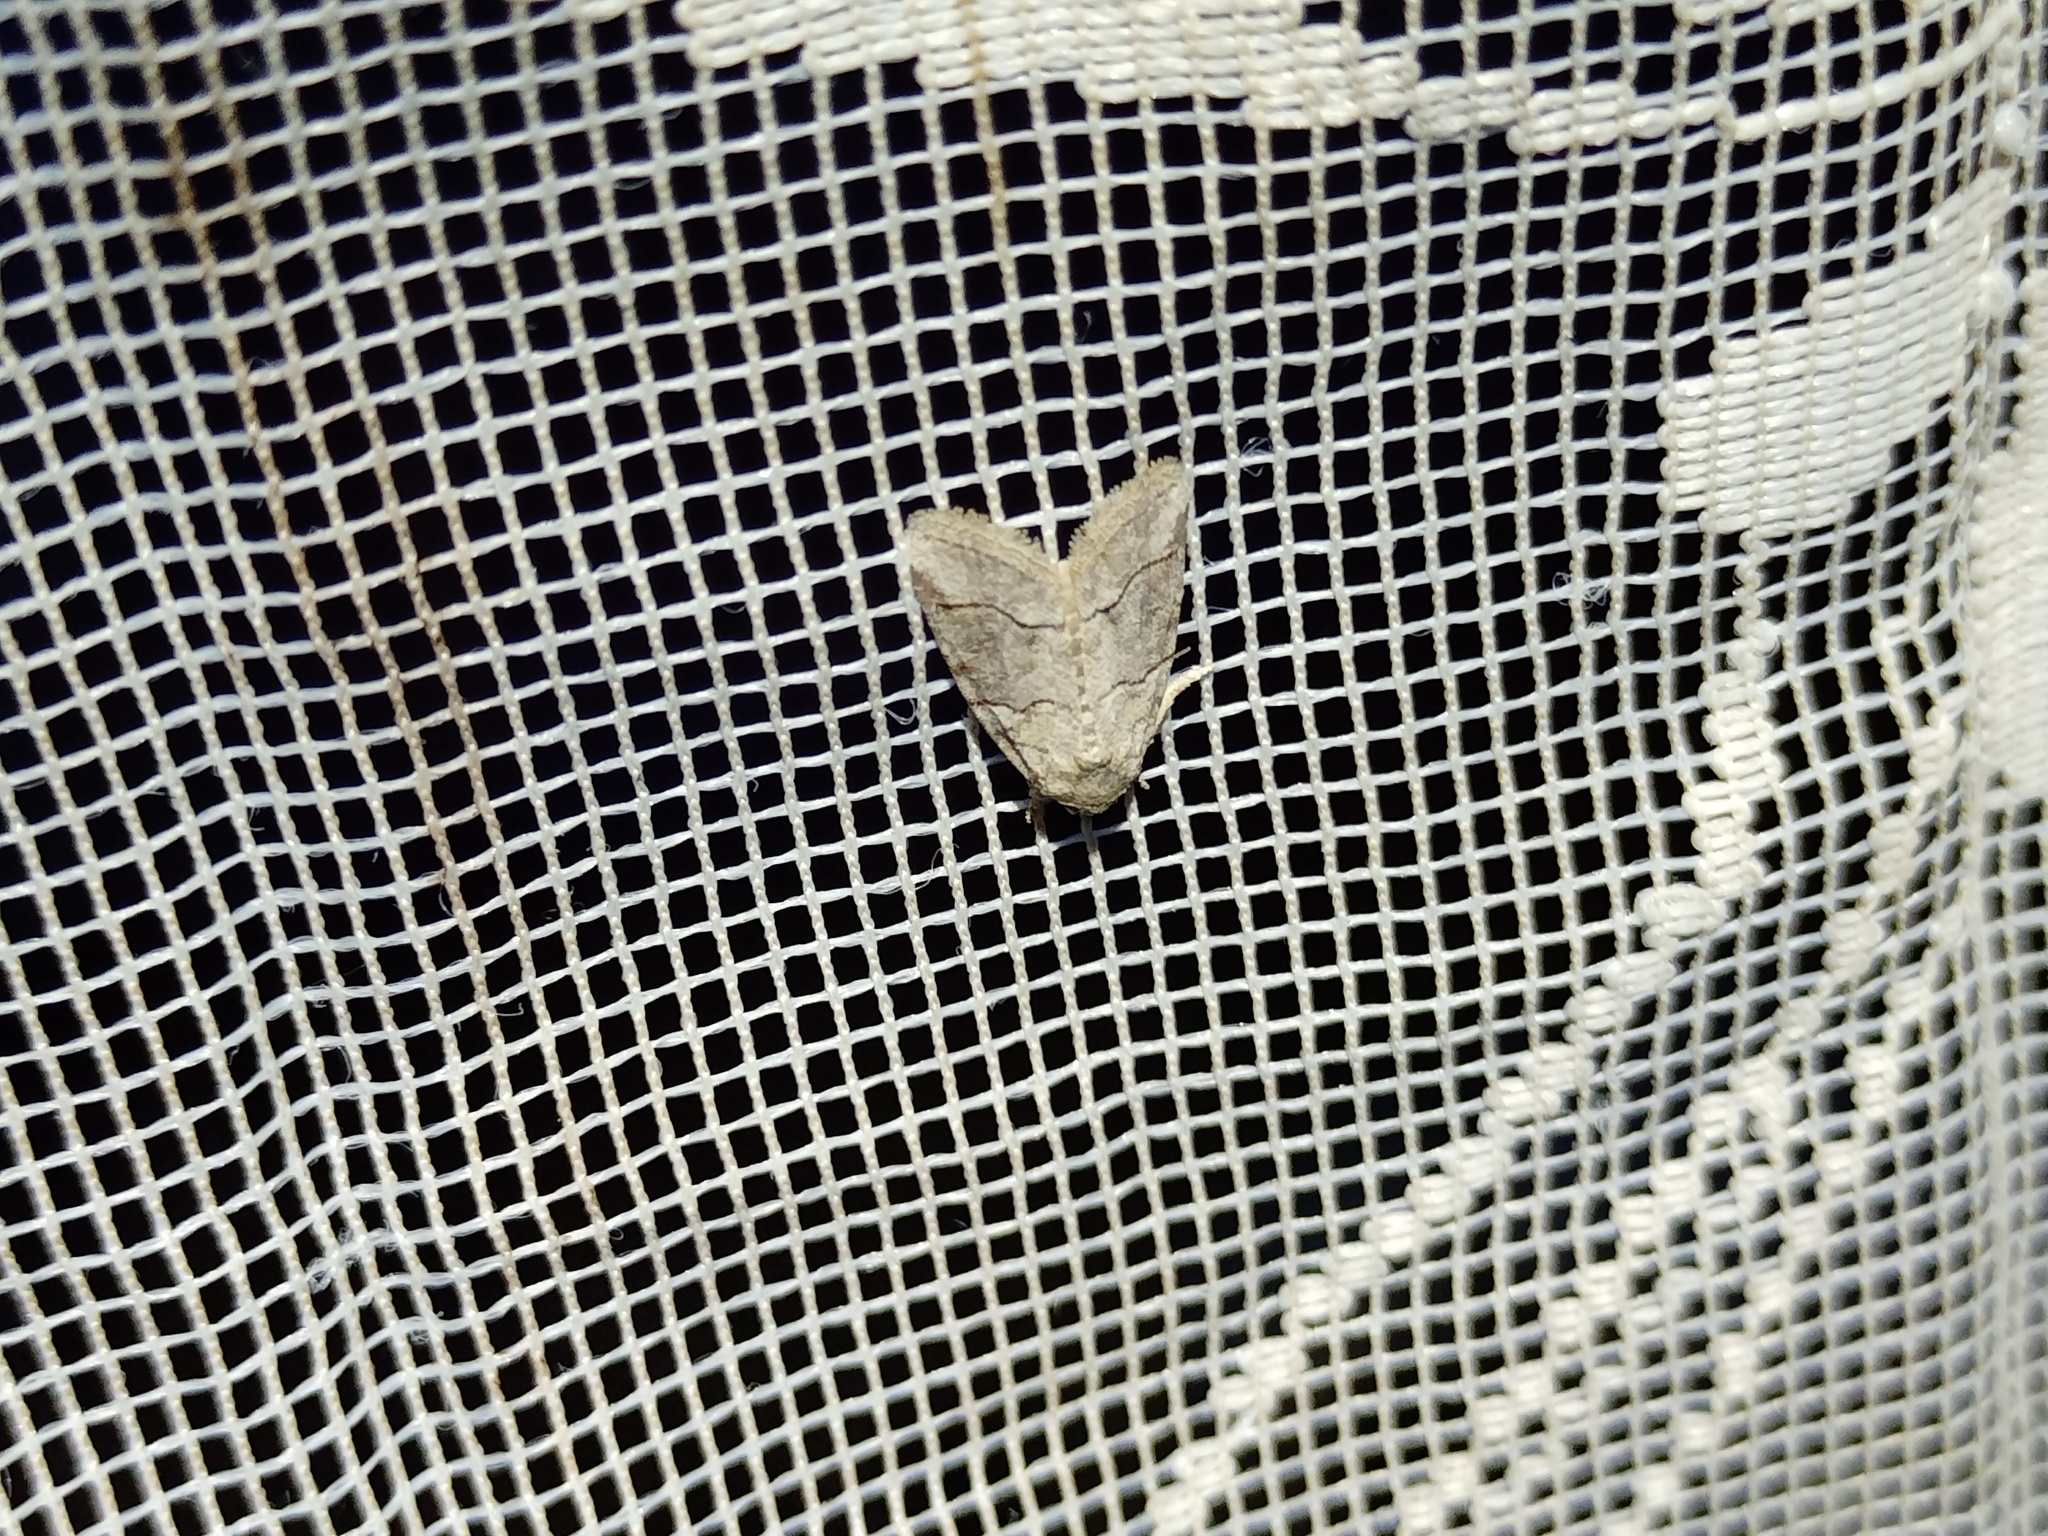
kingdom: Animalia
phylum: Arthropoda
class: Insecta
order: Lepidoptera
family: Noctuidae
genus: Bryophila
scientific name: Bryophila microphysa
